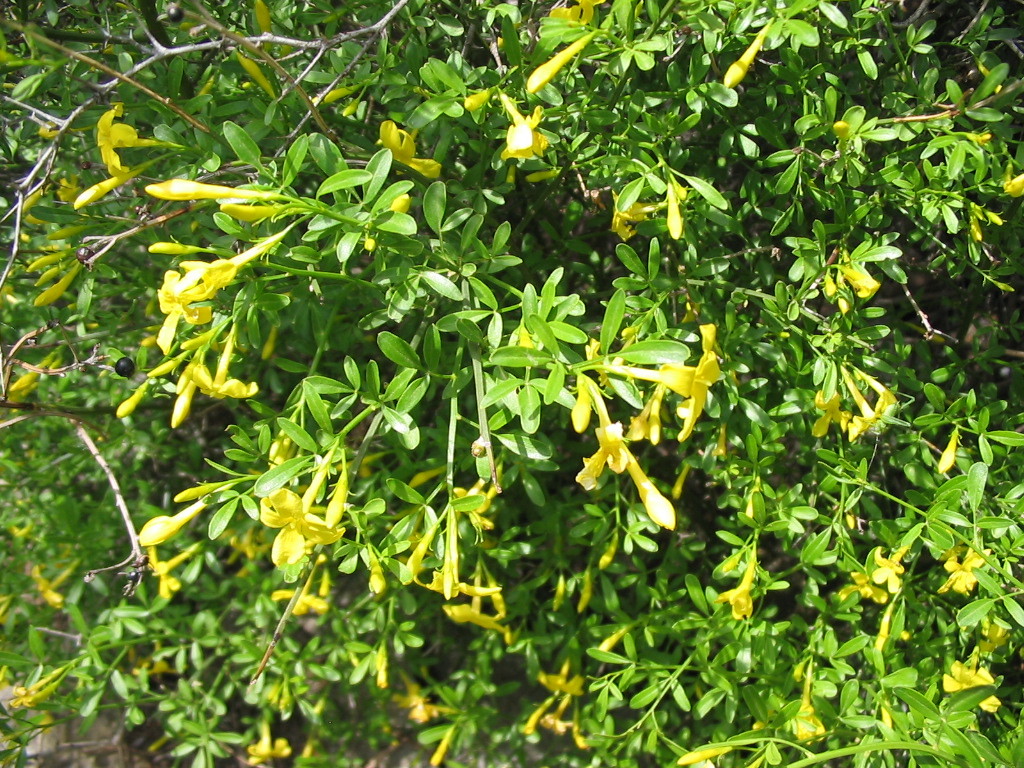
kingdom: Plantae
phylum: Tracheophyta
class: Magnoliopsida
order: Lamiales
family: Oleaceae
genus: Chrysojasminum
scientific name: Chrysojasminum fruticans
